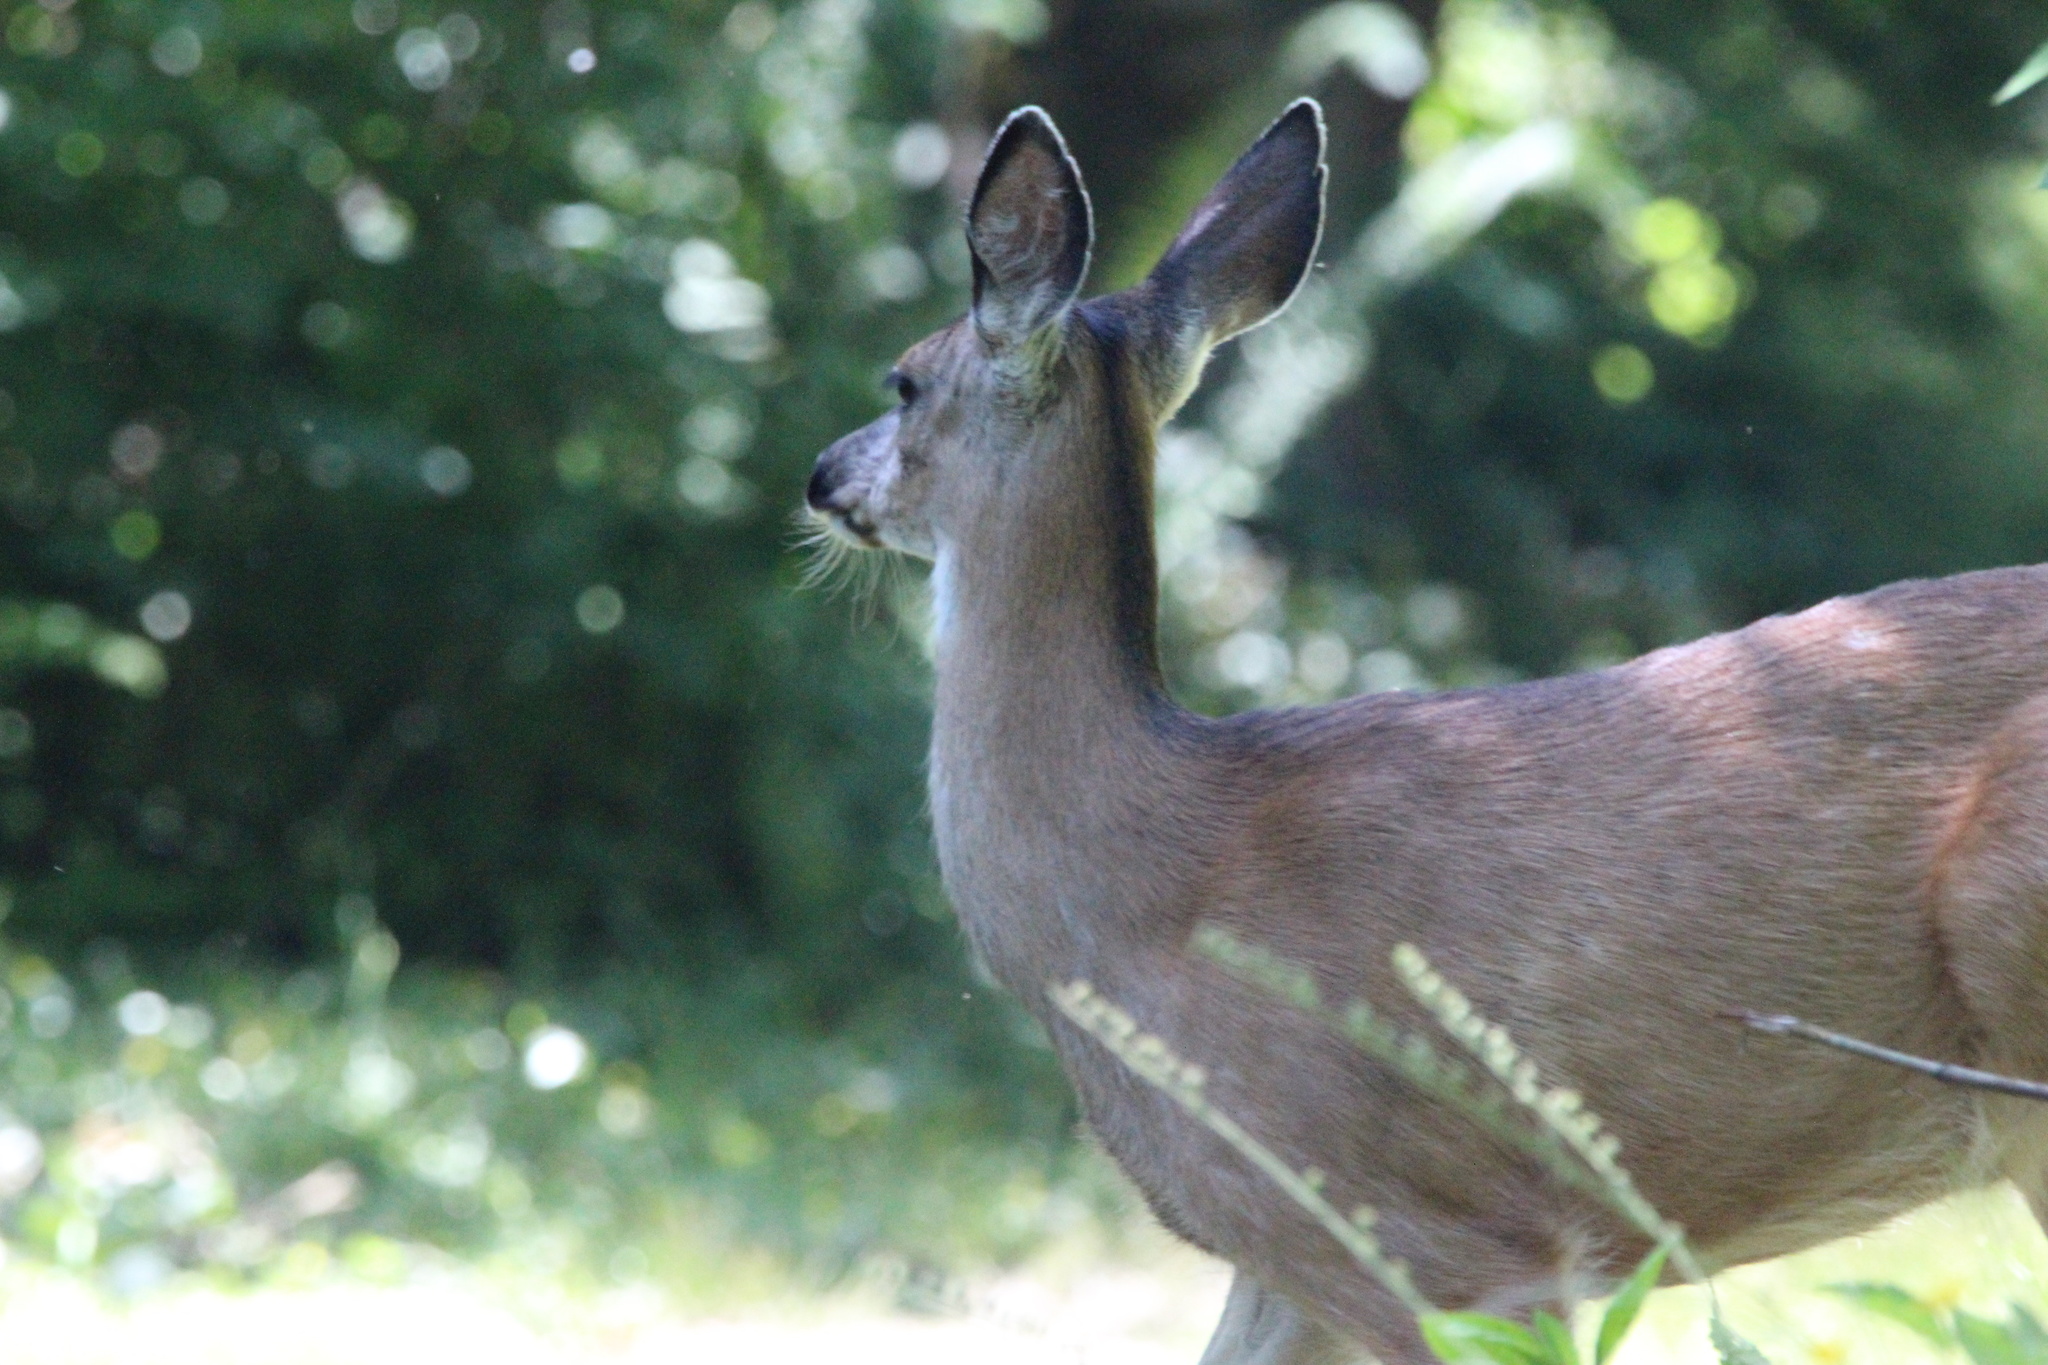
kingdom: Animalia
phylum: Chordata
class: Mammalia
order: Artiodactyla
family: Cervidae
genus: Odocoileus
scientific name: Odocoileus hemionus
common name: Mule deer
